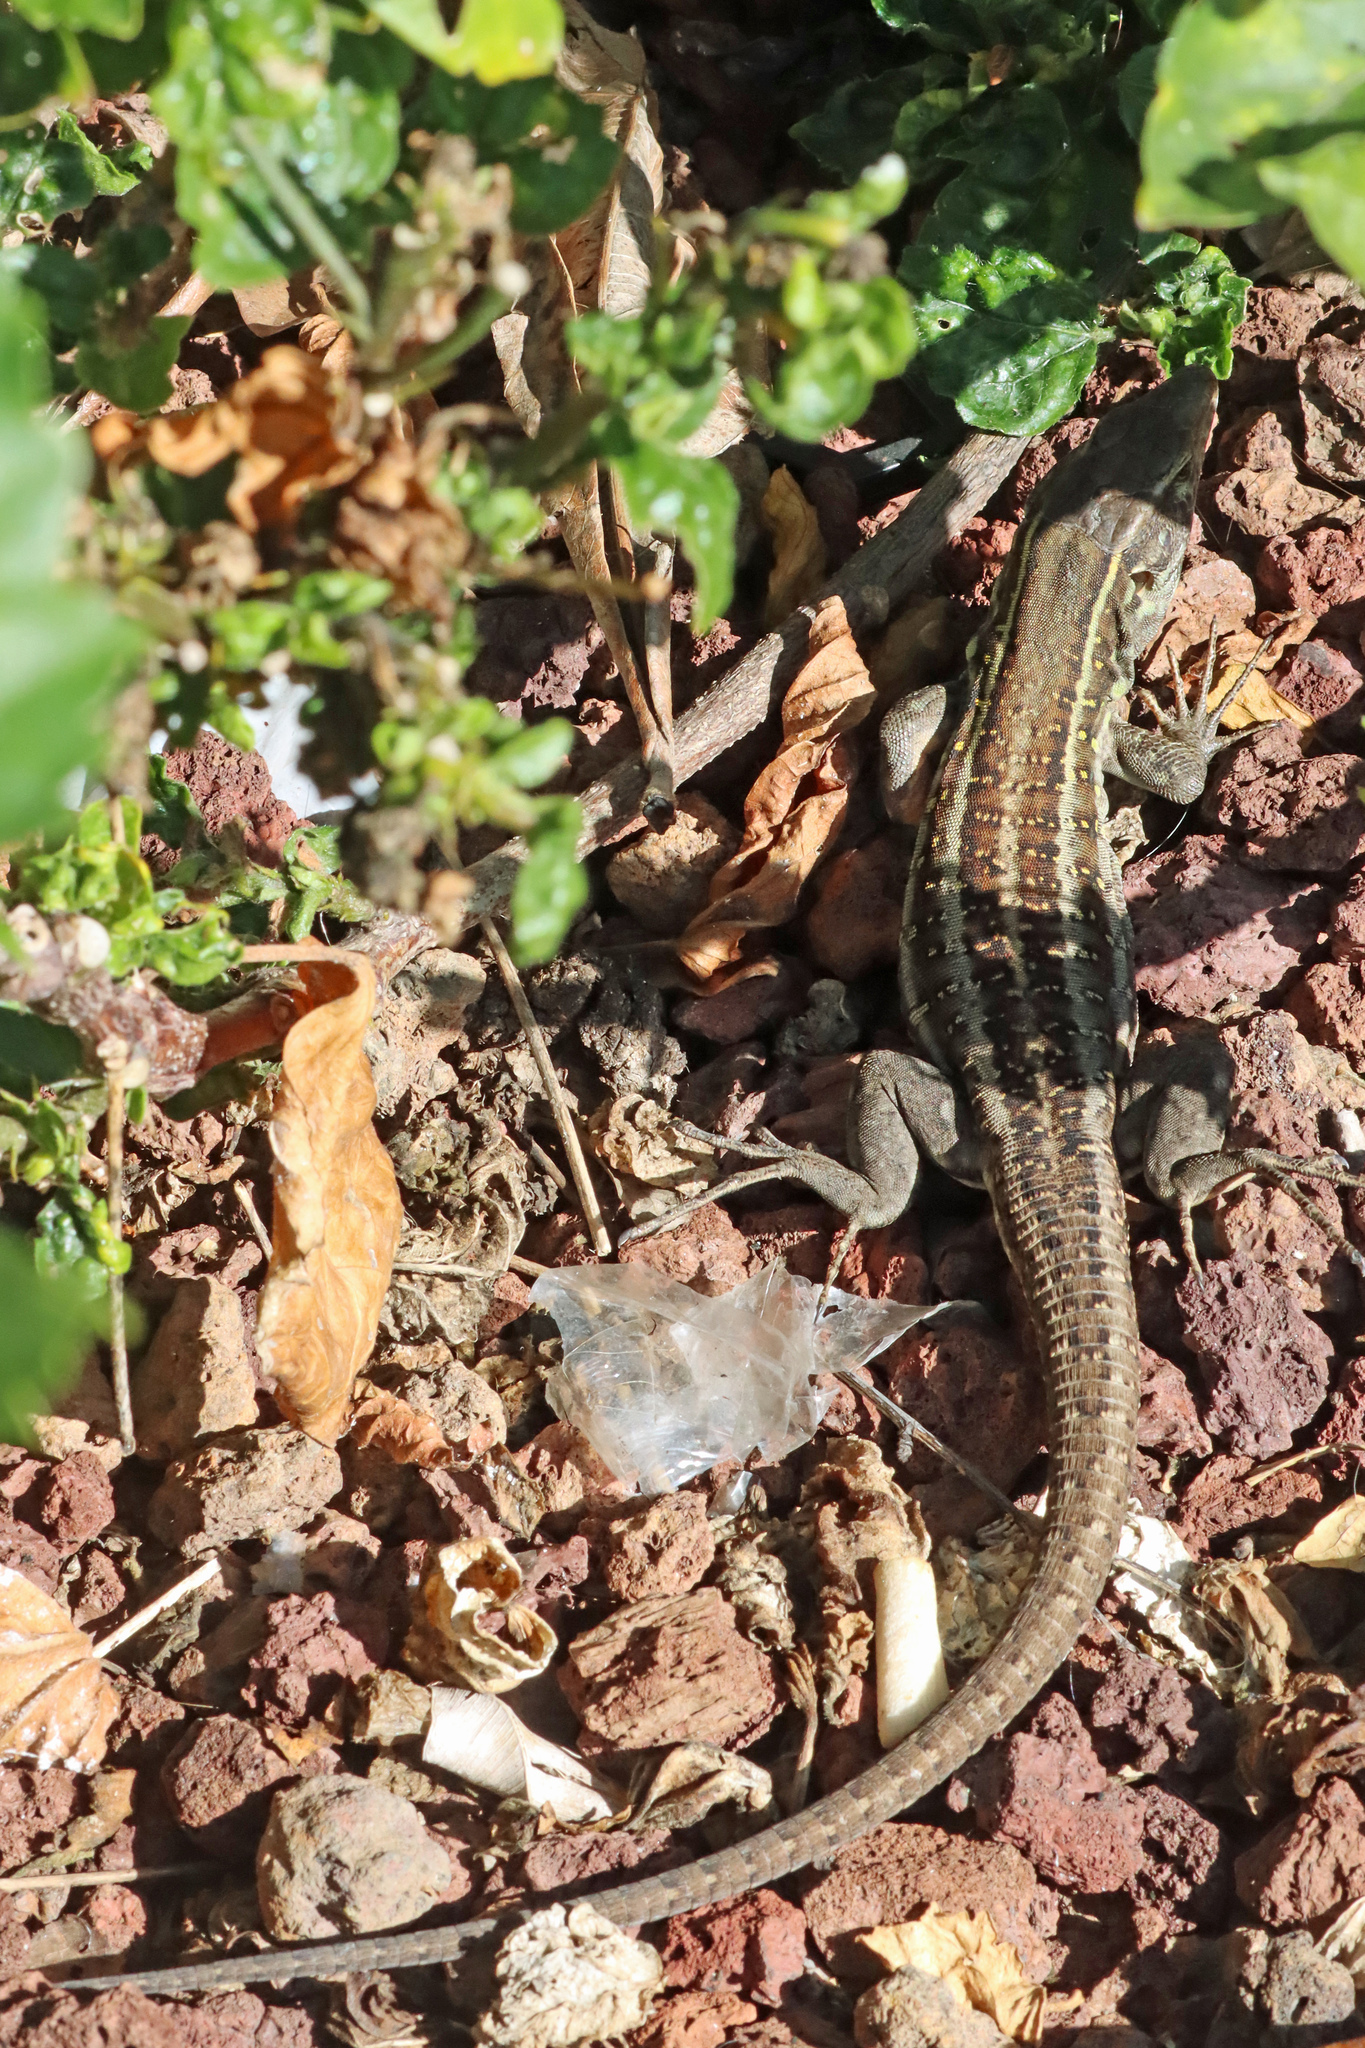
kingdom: Animalia
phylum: Chordata
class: Squamata
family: Lacertidae
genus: Gallotia
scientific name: Gallotia galloti
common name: Gallot's lizard
